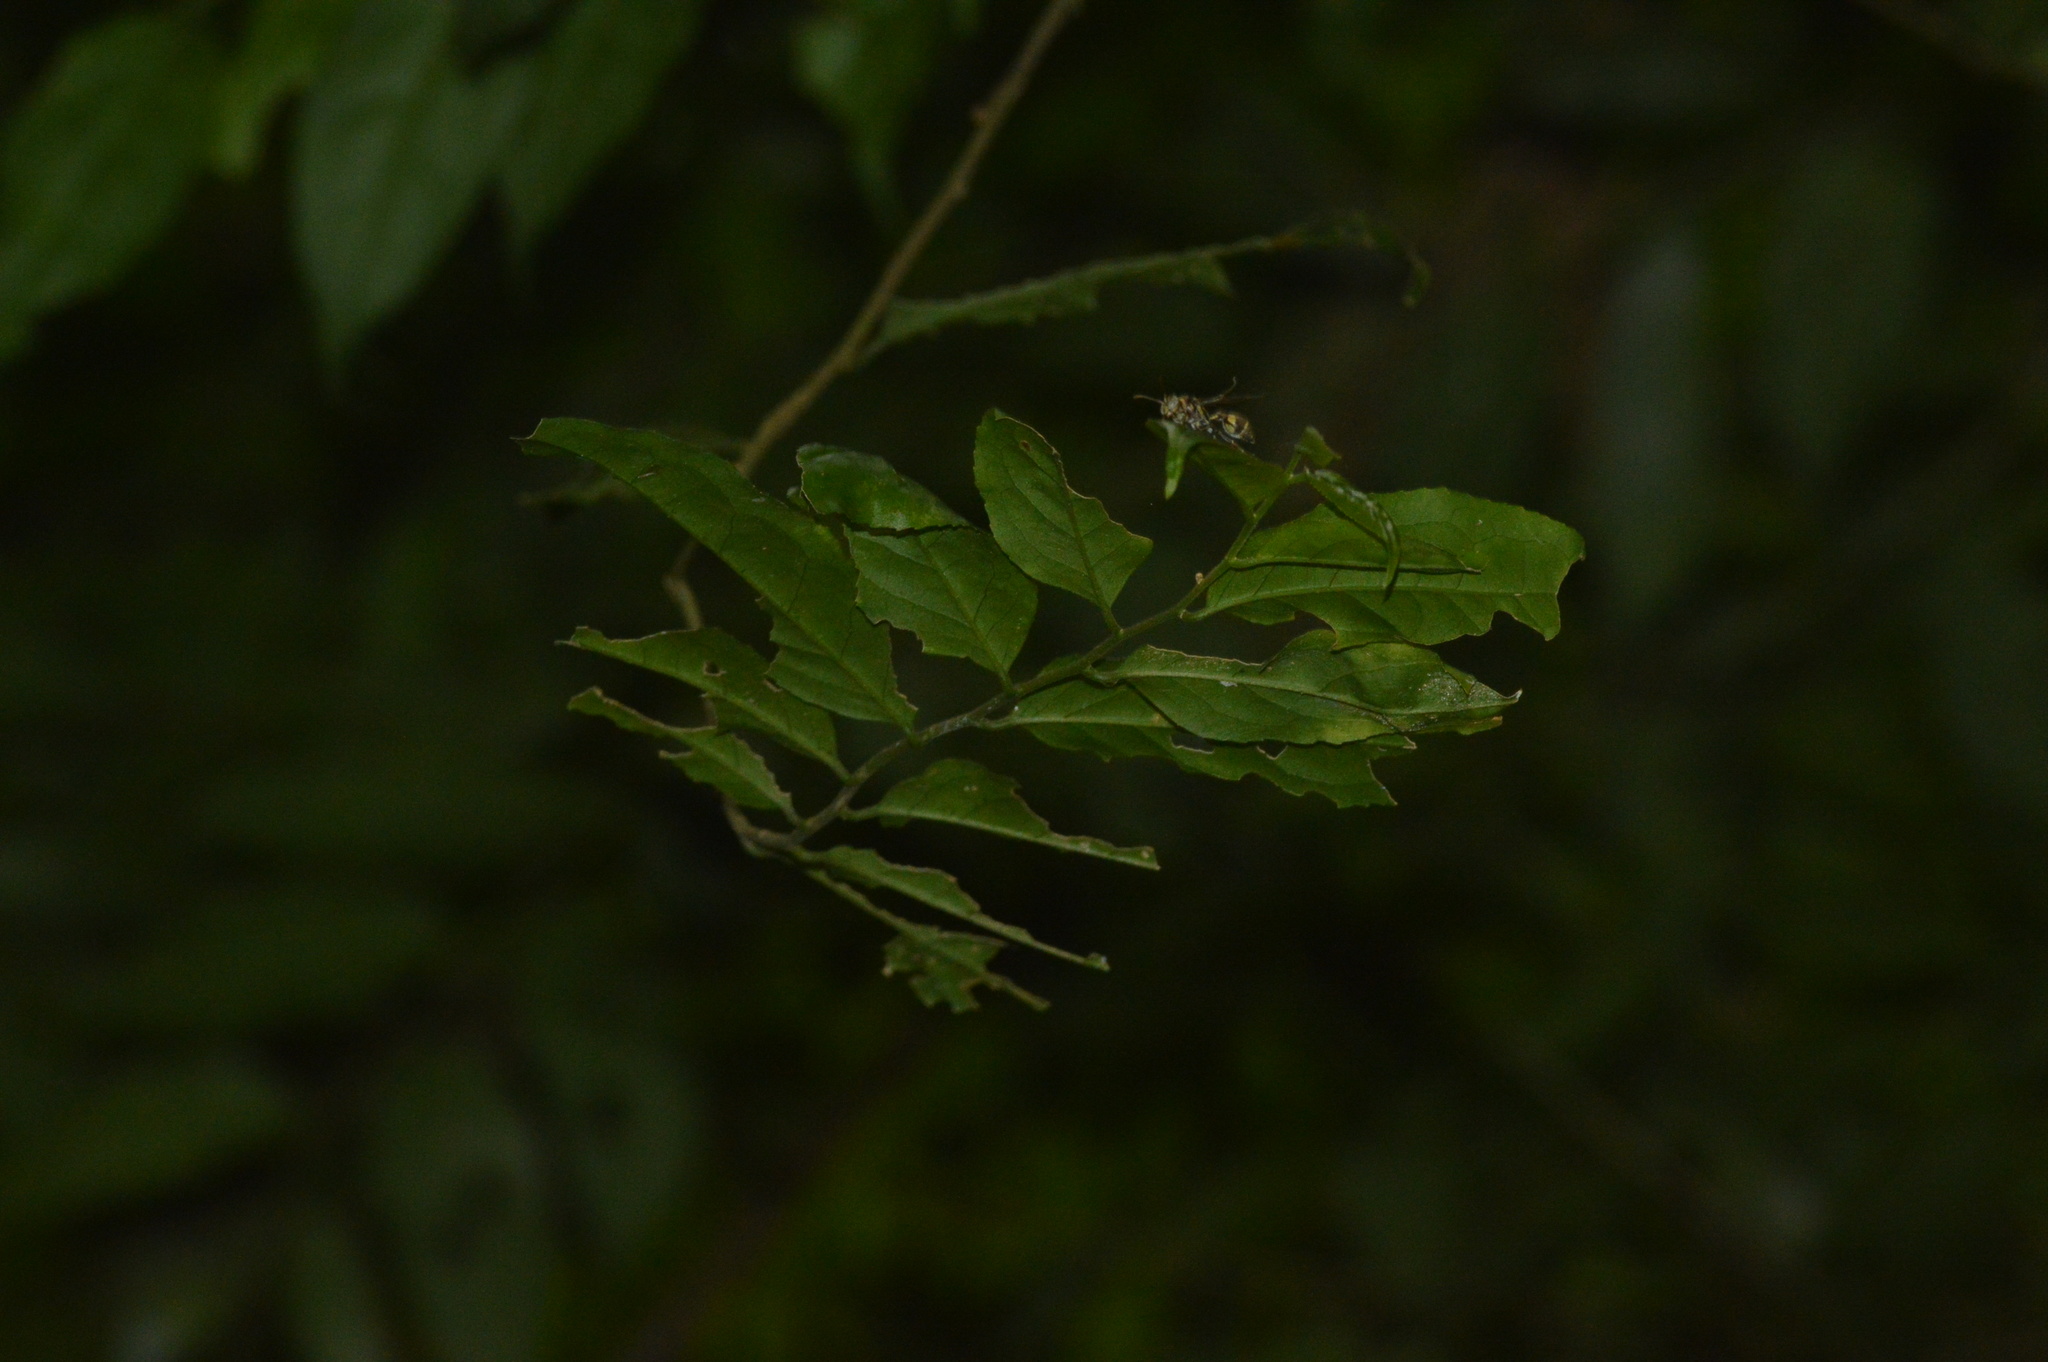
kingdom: Animalia
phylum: Arthropoda
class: Insecta
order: Hymenoptera
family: Vespidae
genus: Ropalidia
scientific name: Ropalidia stigma
